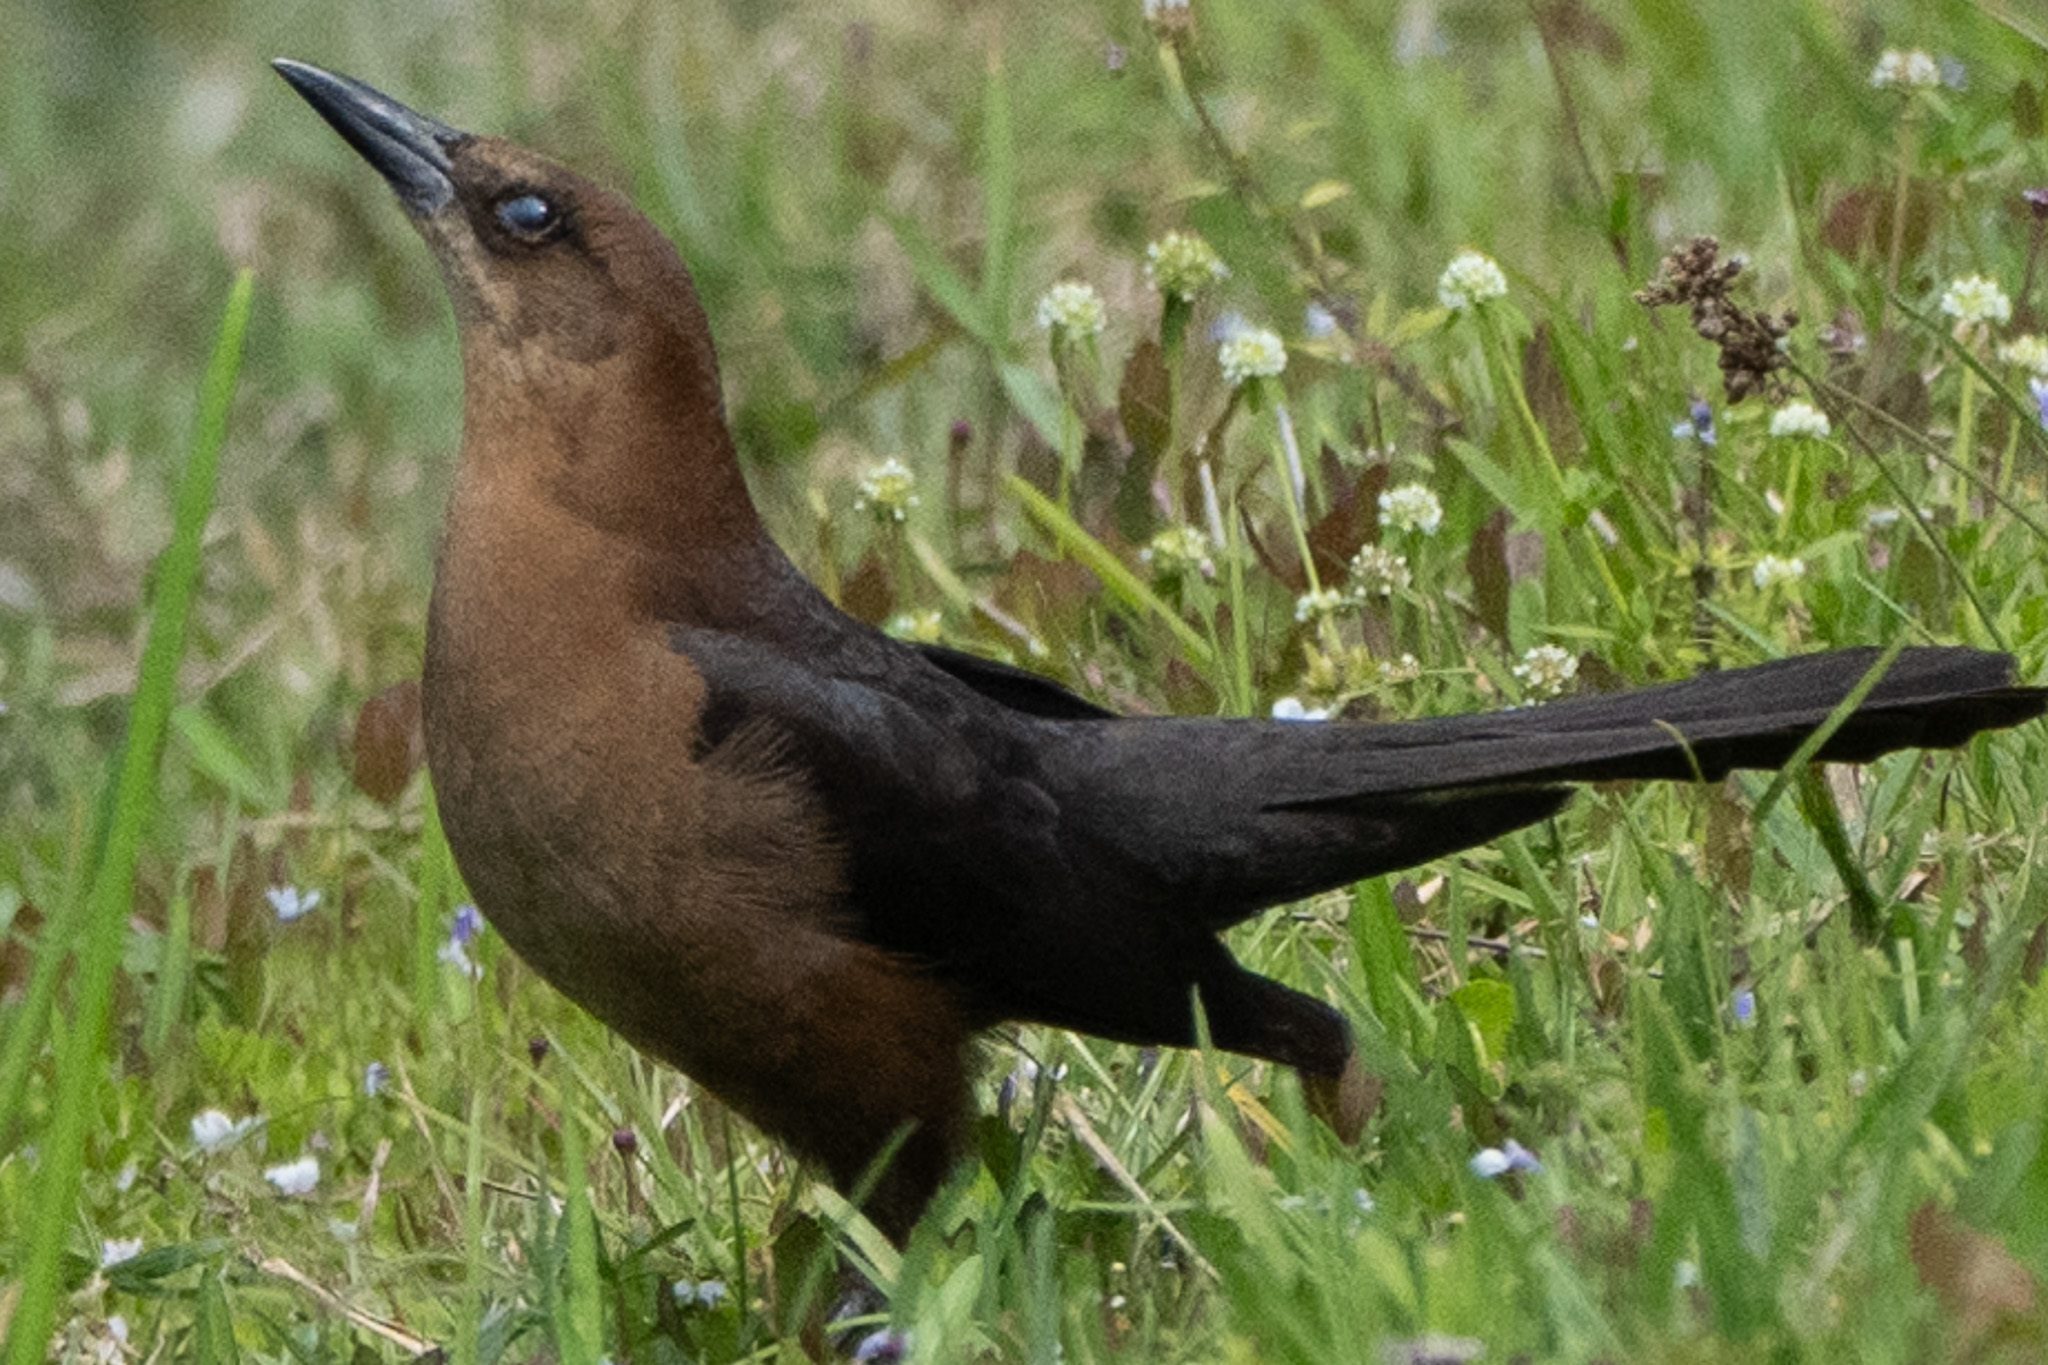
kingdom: Animalia
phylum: Chordata
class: Aves
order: Passeriformes
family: Icteridae
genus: Quiscalus
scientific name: Quiscalus major
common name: Boat-tailed grackle
